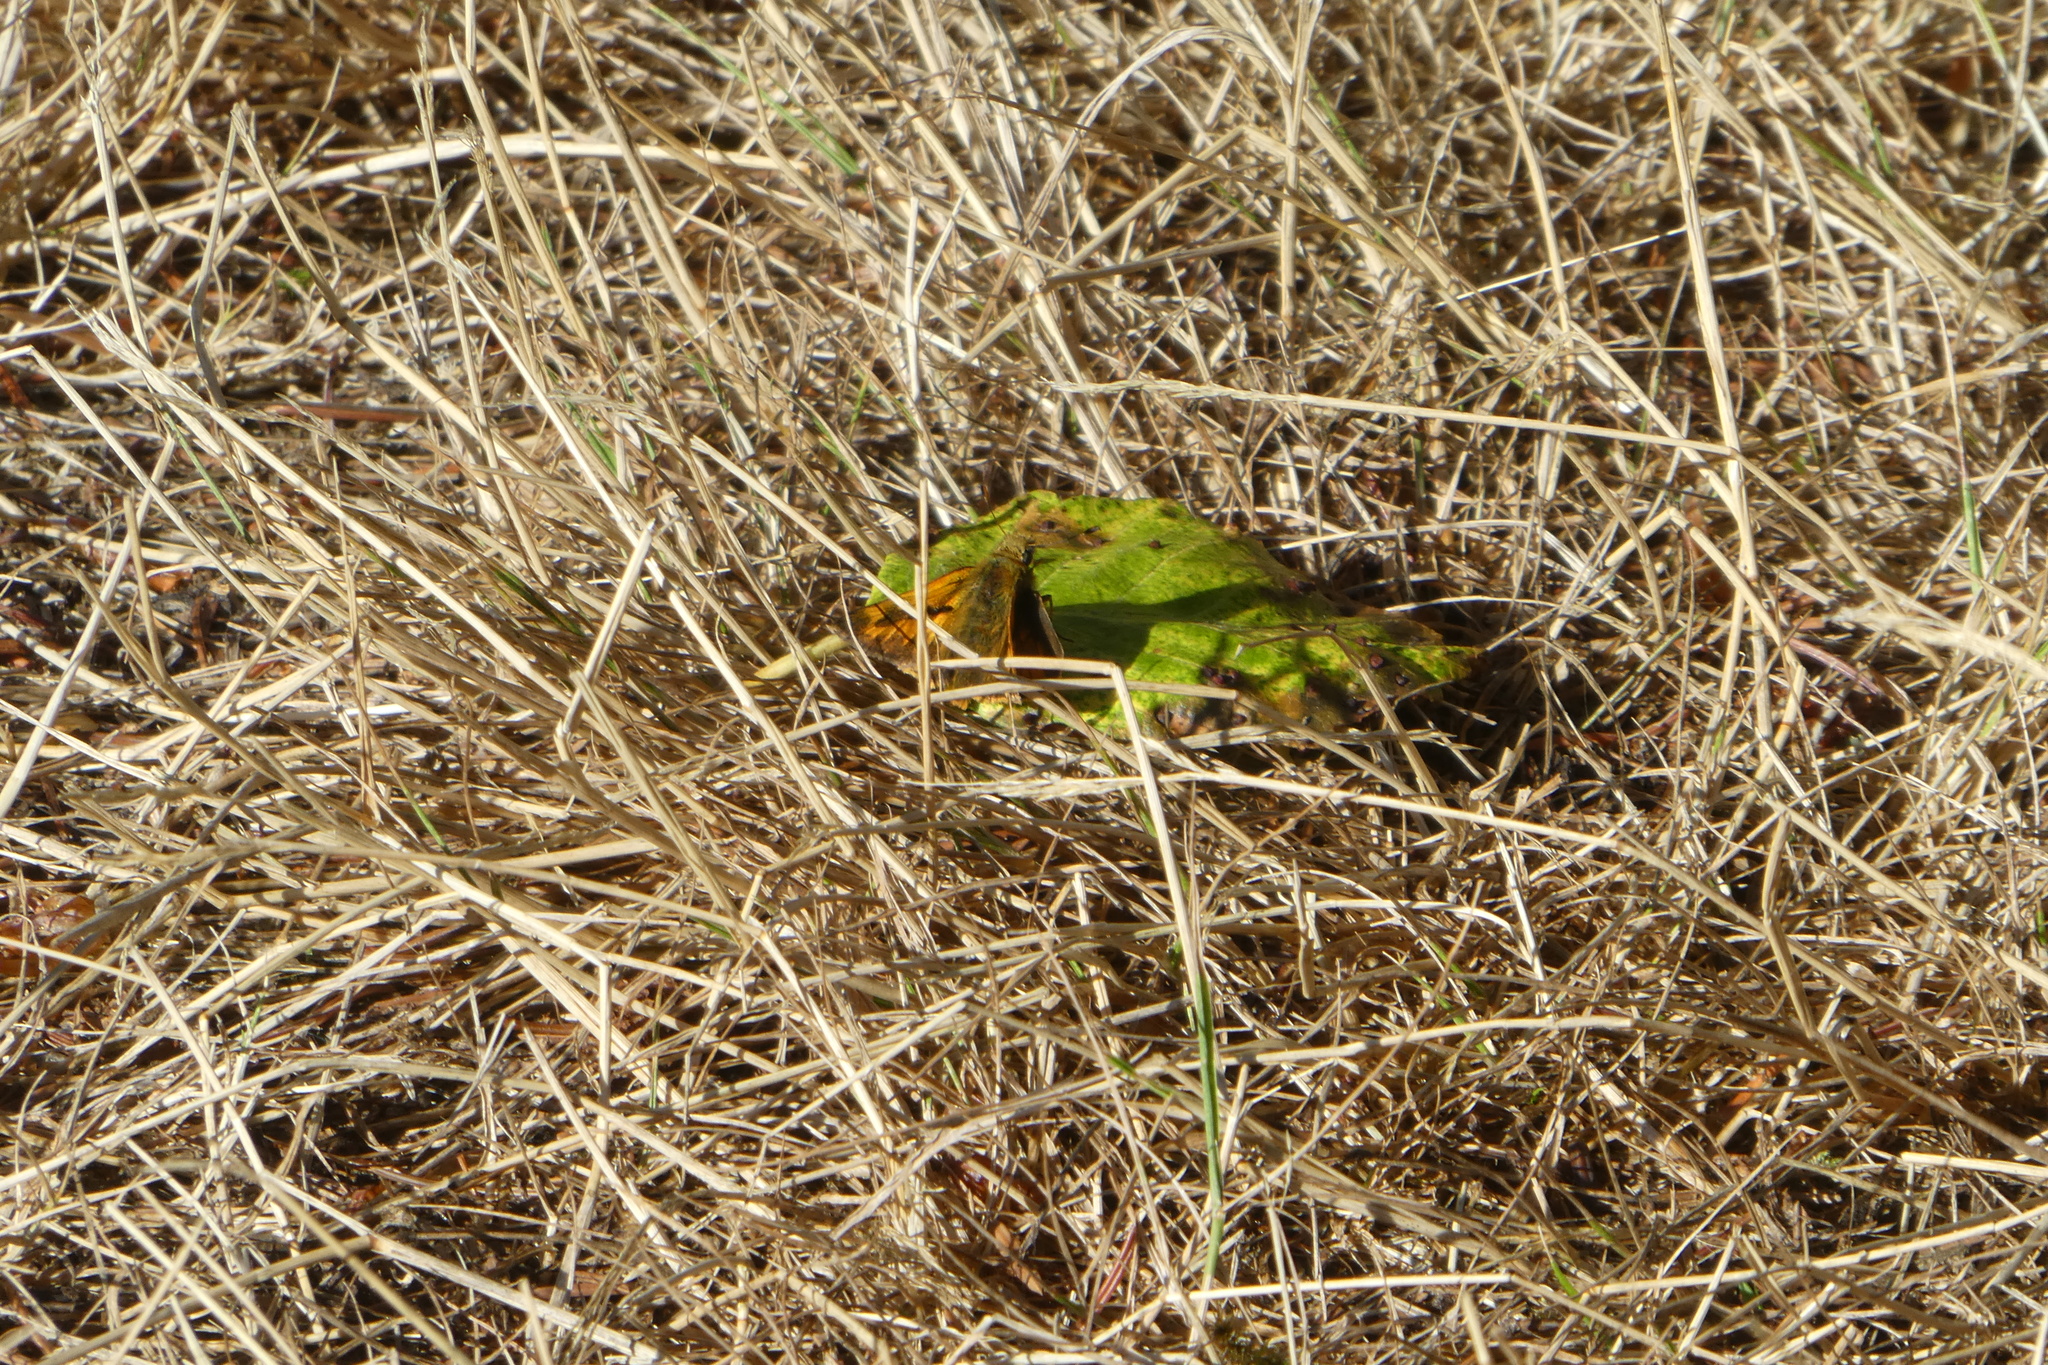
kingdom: Animalia
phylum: Arthropoda
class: Insecta
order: Lepidoptera
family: Hesperiidae
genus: Ochlodes
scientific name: Ochlodes sylvanoides
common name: Woodland skipper
